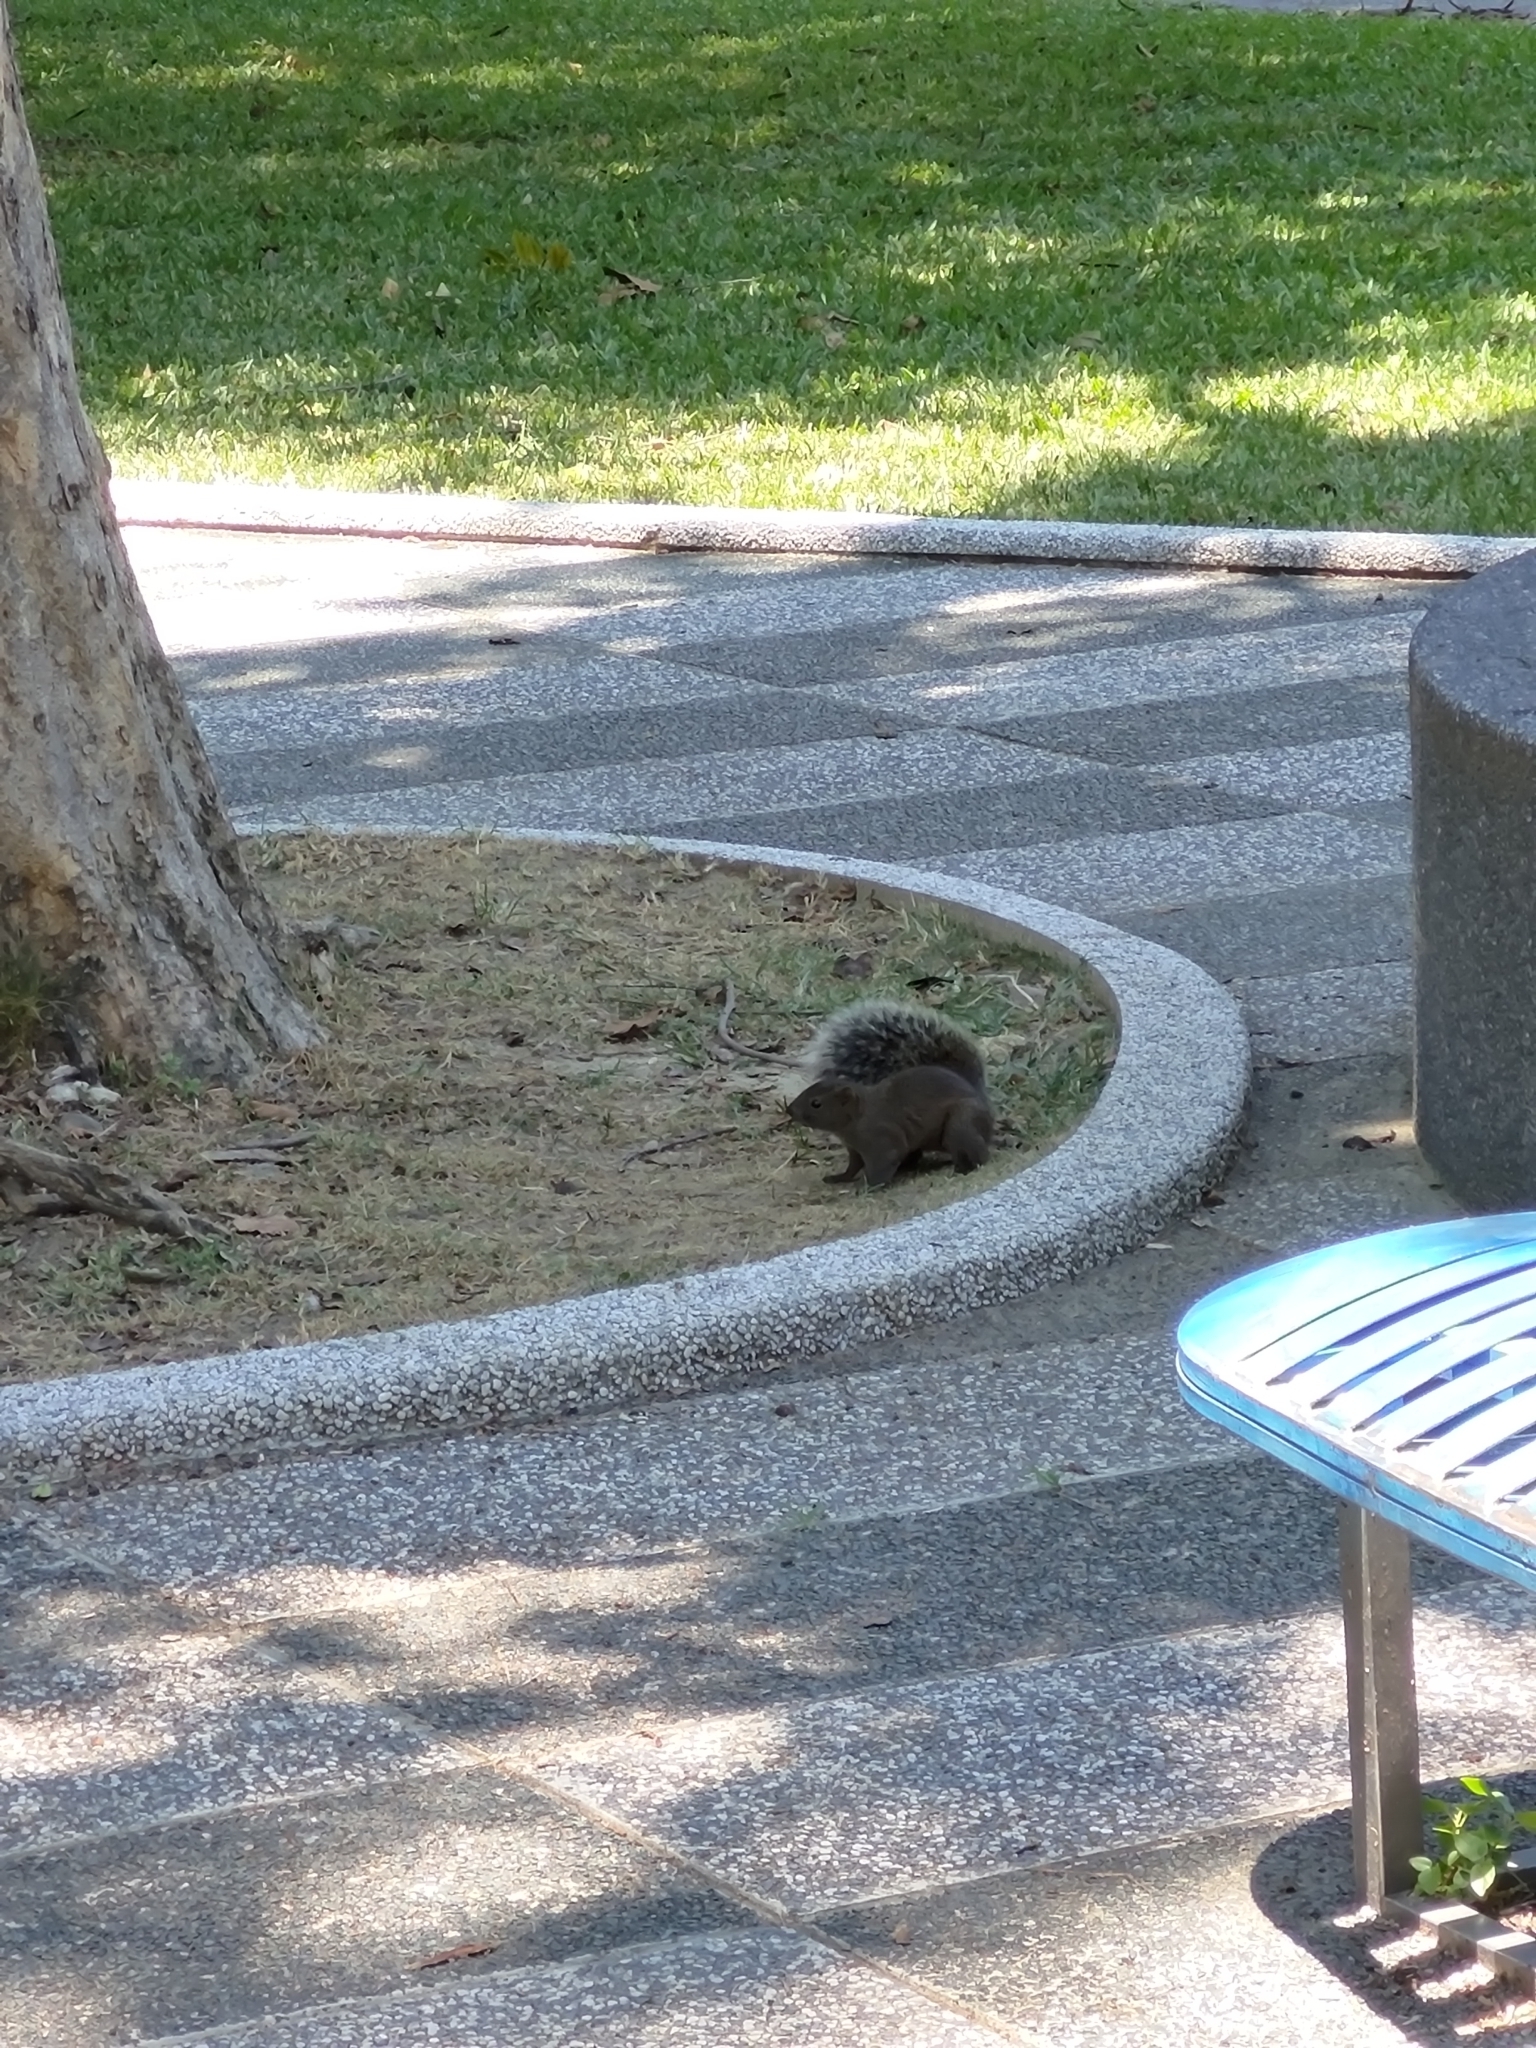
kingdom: Animalia
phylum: Chordata
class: Mammalia
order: Rodentia
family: Sciuridae
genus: Callosciurus
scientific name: Callosciurus erythraeus
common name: Pallas's squirrel
